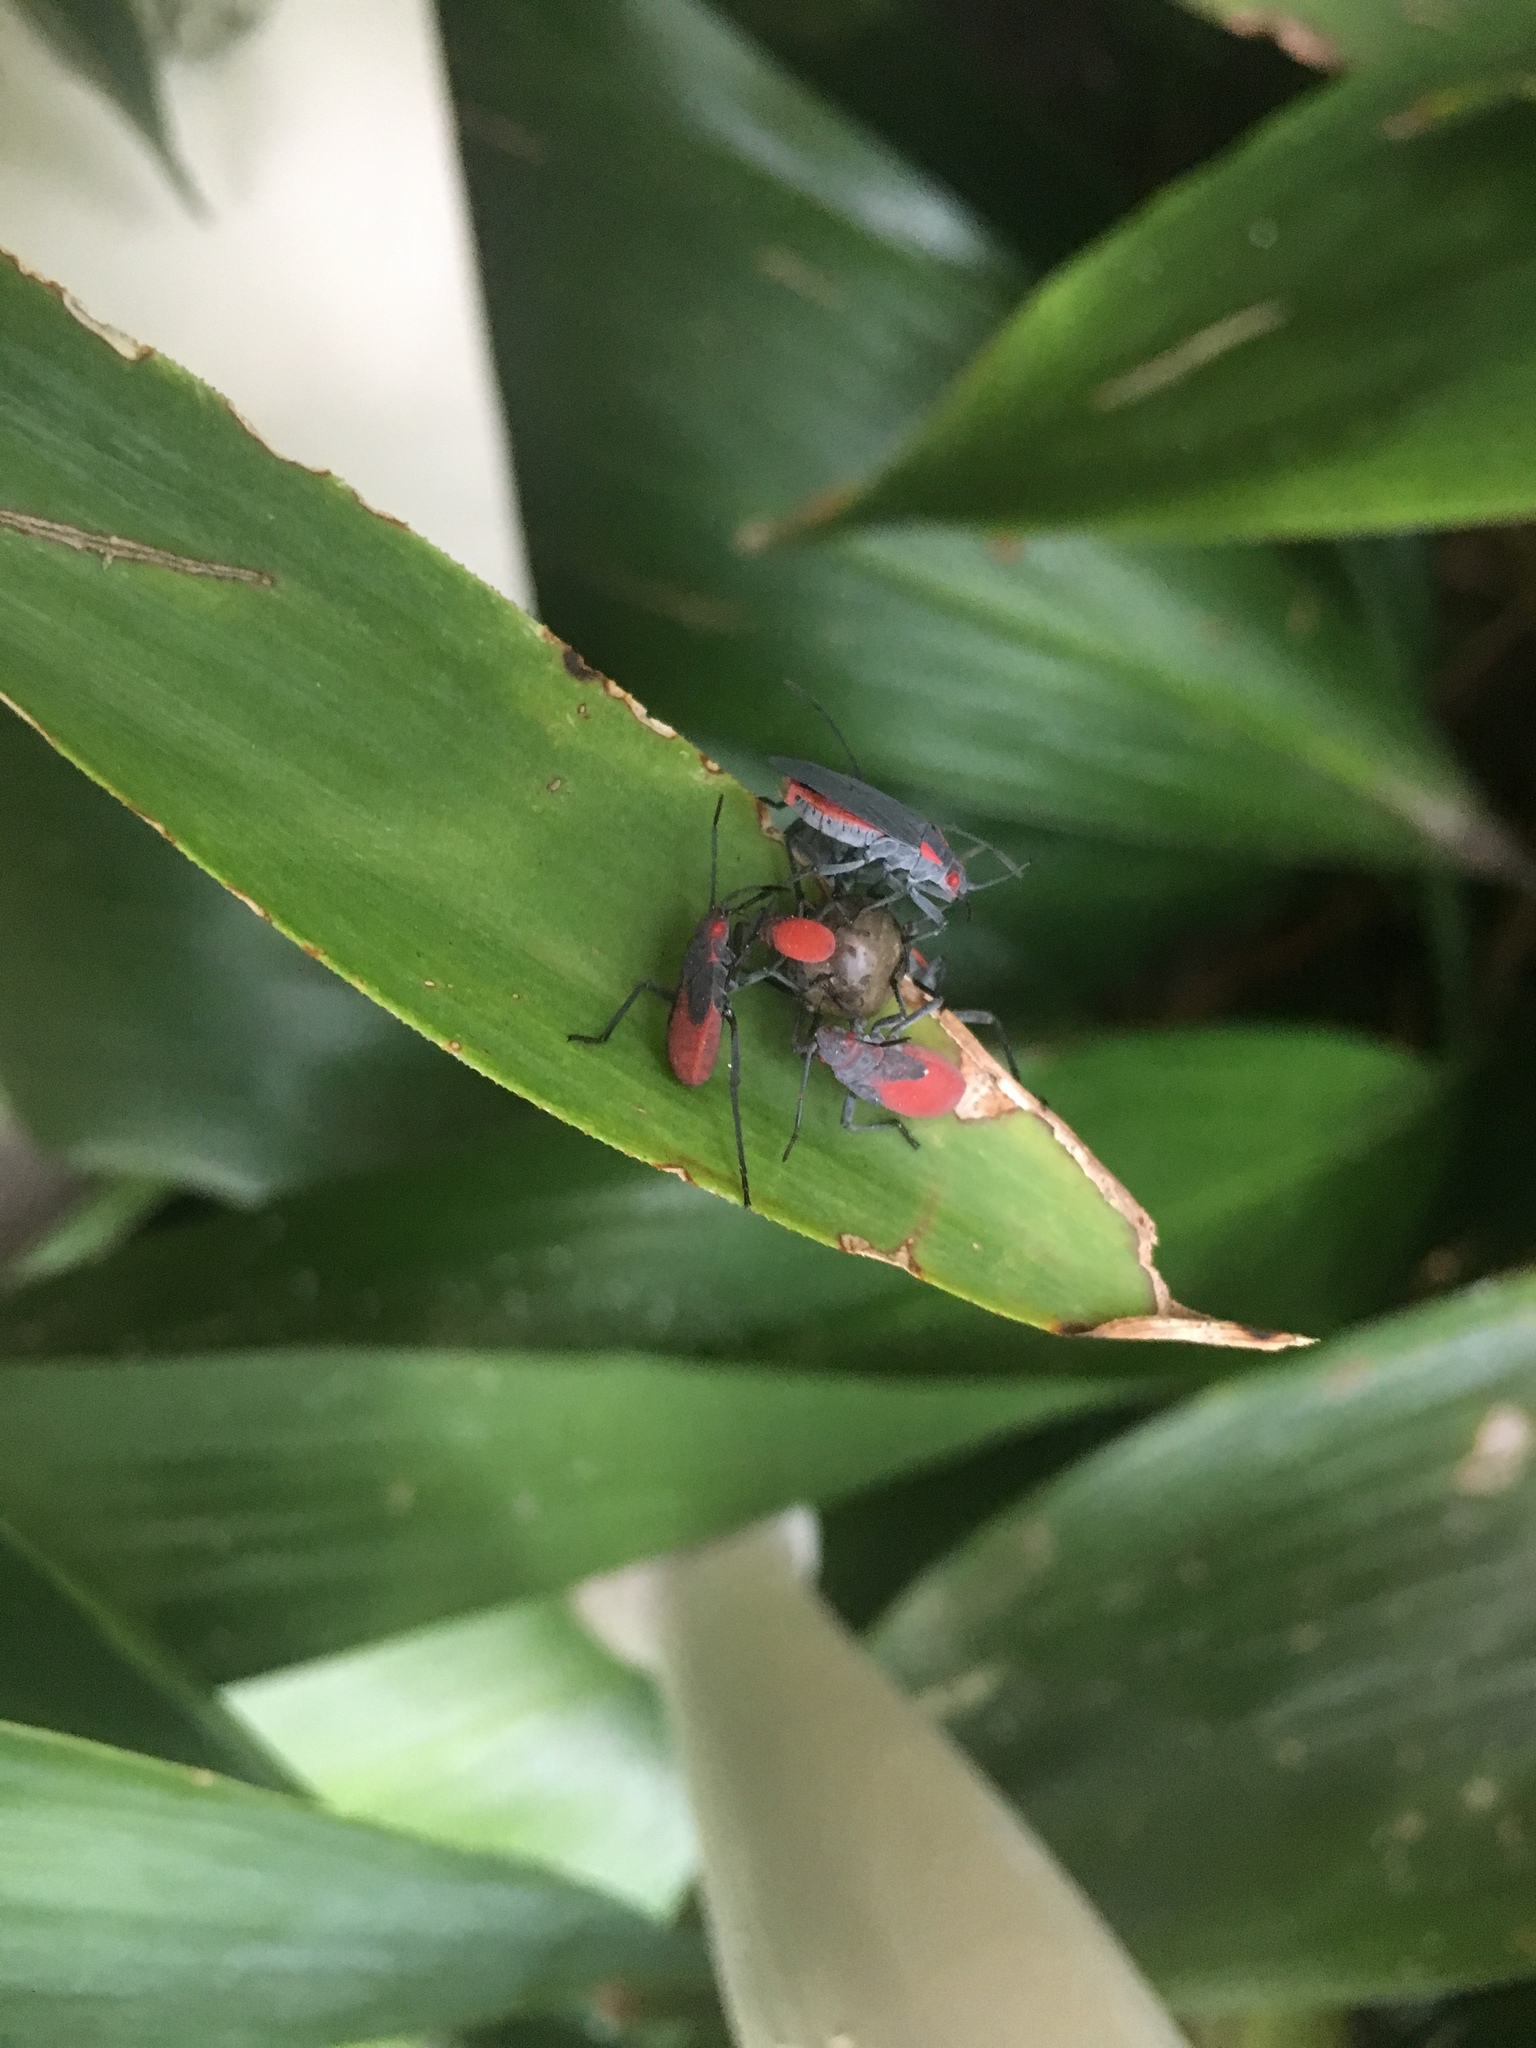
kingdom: Animalia
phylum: Arthropoda
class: Insecta
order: Hemiptera
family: Rhopalidae
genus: Jadera
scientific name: Jadera haematoloma
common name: Red-shouldered bug
